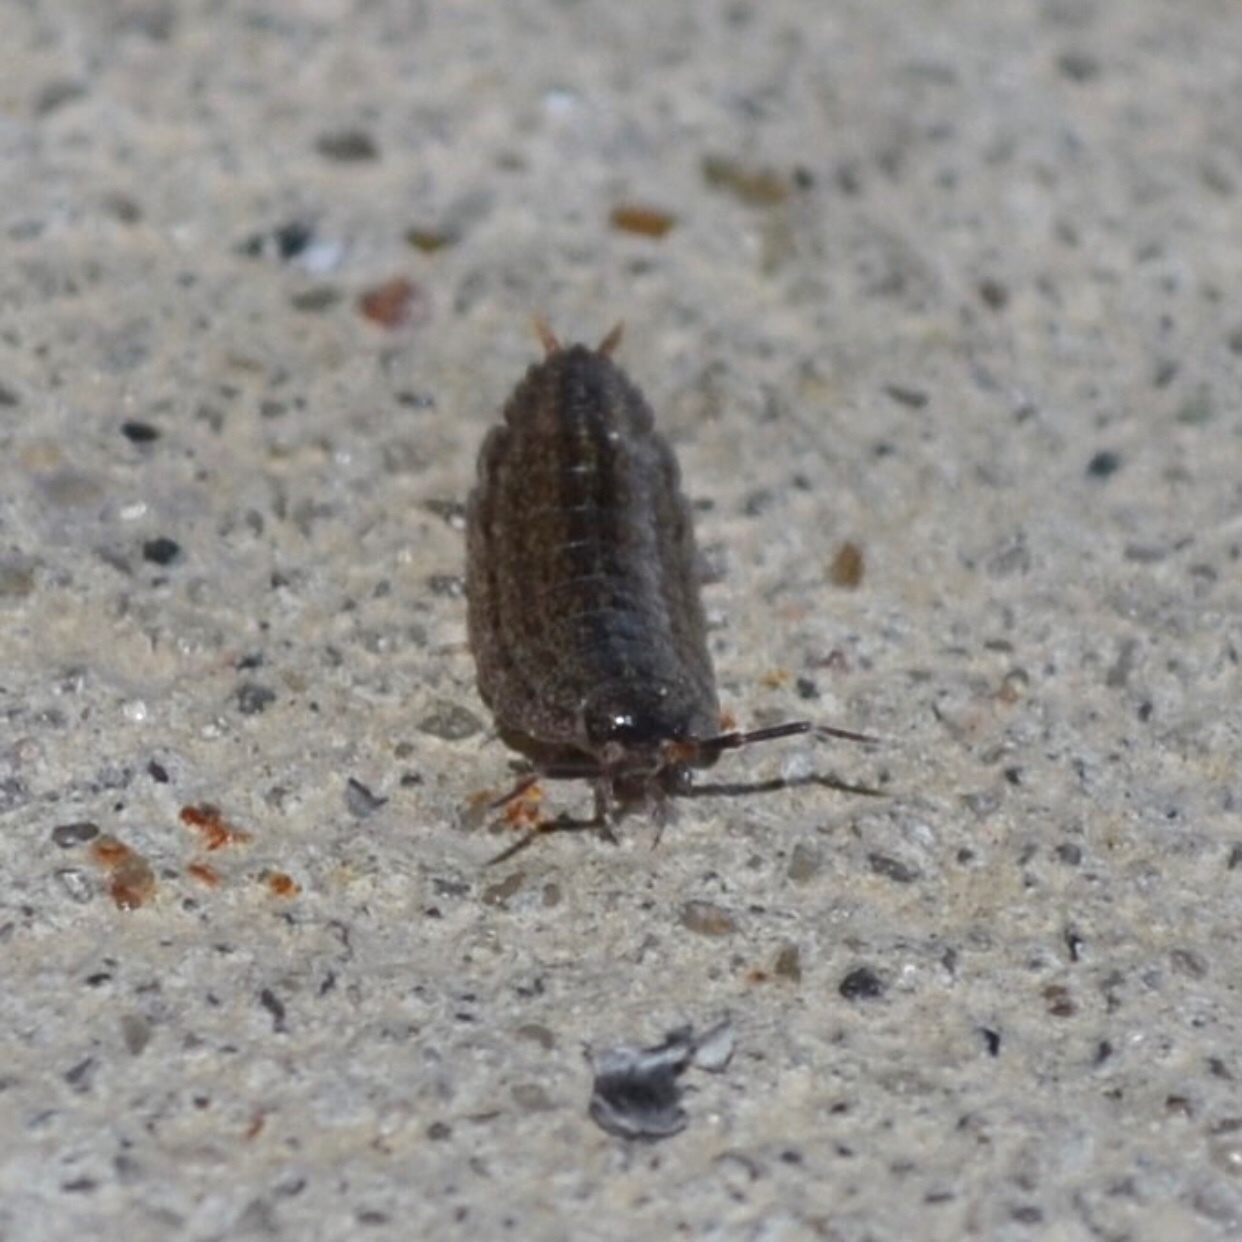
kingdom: Animalia
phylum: Arthropoda
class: Malacostraca
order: Isopoda
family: Porcellionidae
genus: Porcellionides
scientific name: Porcellionides virgatus
